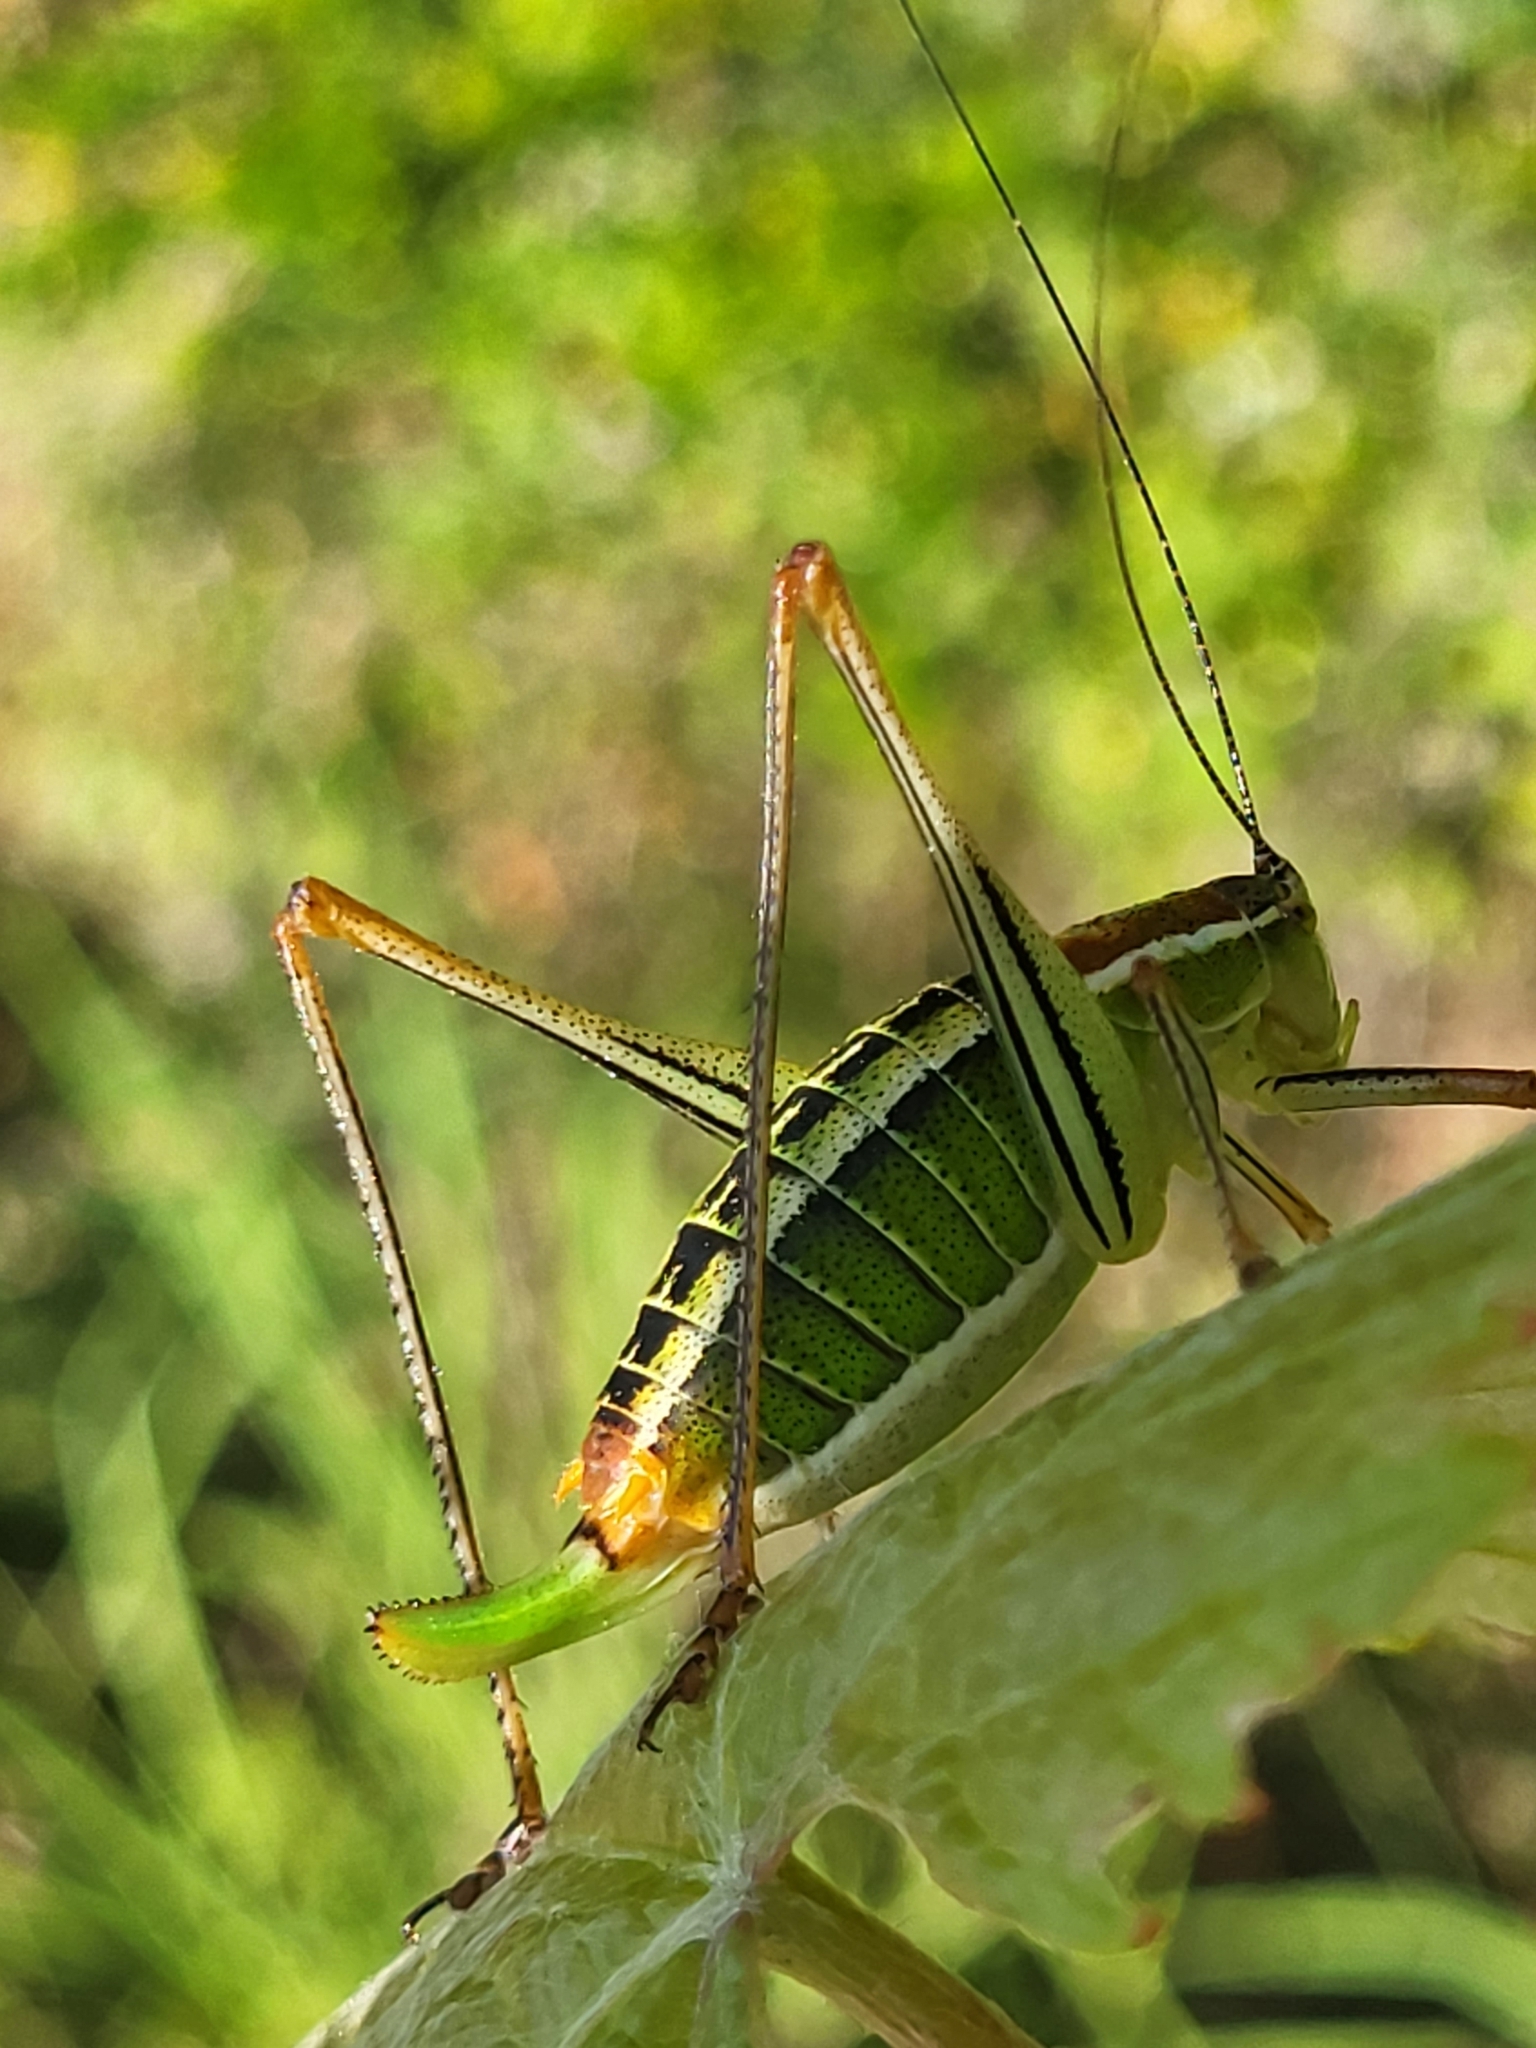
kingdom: Animalia
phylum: Arthropoda
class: Insecta
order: Orthoptera
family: Tettigoniidae
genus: Poecilimon
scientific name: Poecilimon jonicus
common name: Ionian bright bush-cricket
